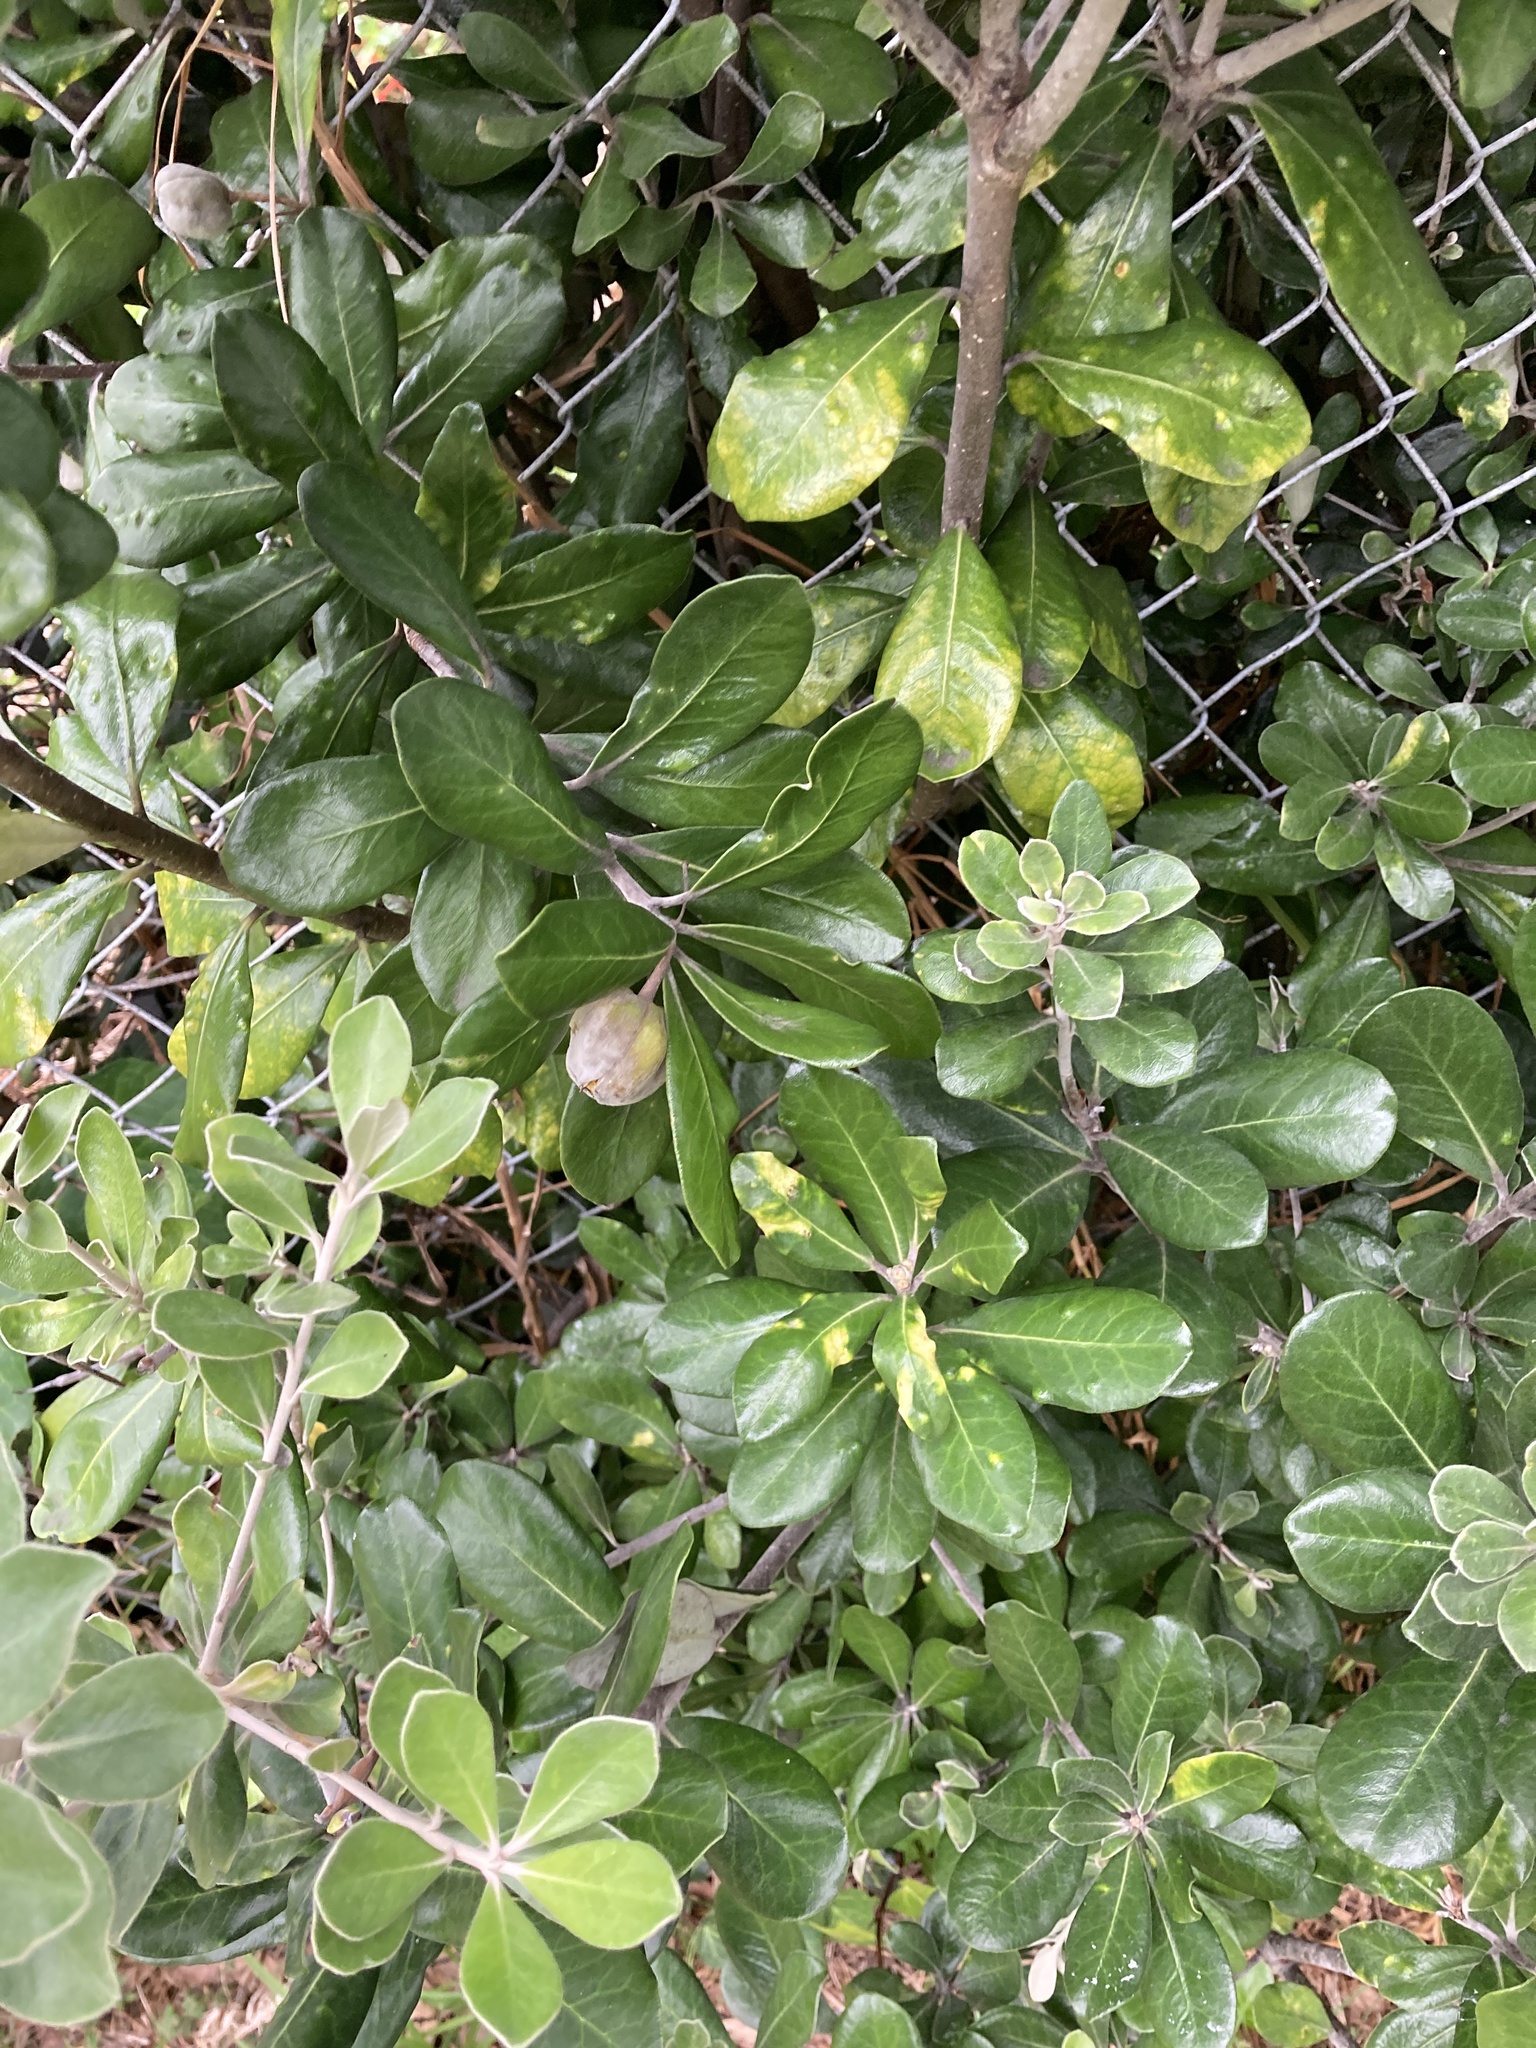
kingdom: Plantae
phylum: Tracheophyta
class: Magnoliopsida
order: Apiales
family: Pittosporaceae
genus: Pittosporum
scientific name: Pittosporum crassifolium
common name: Karo
